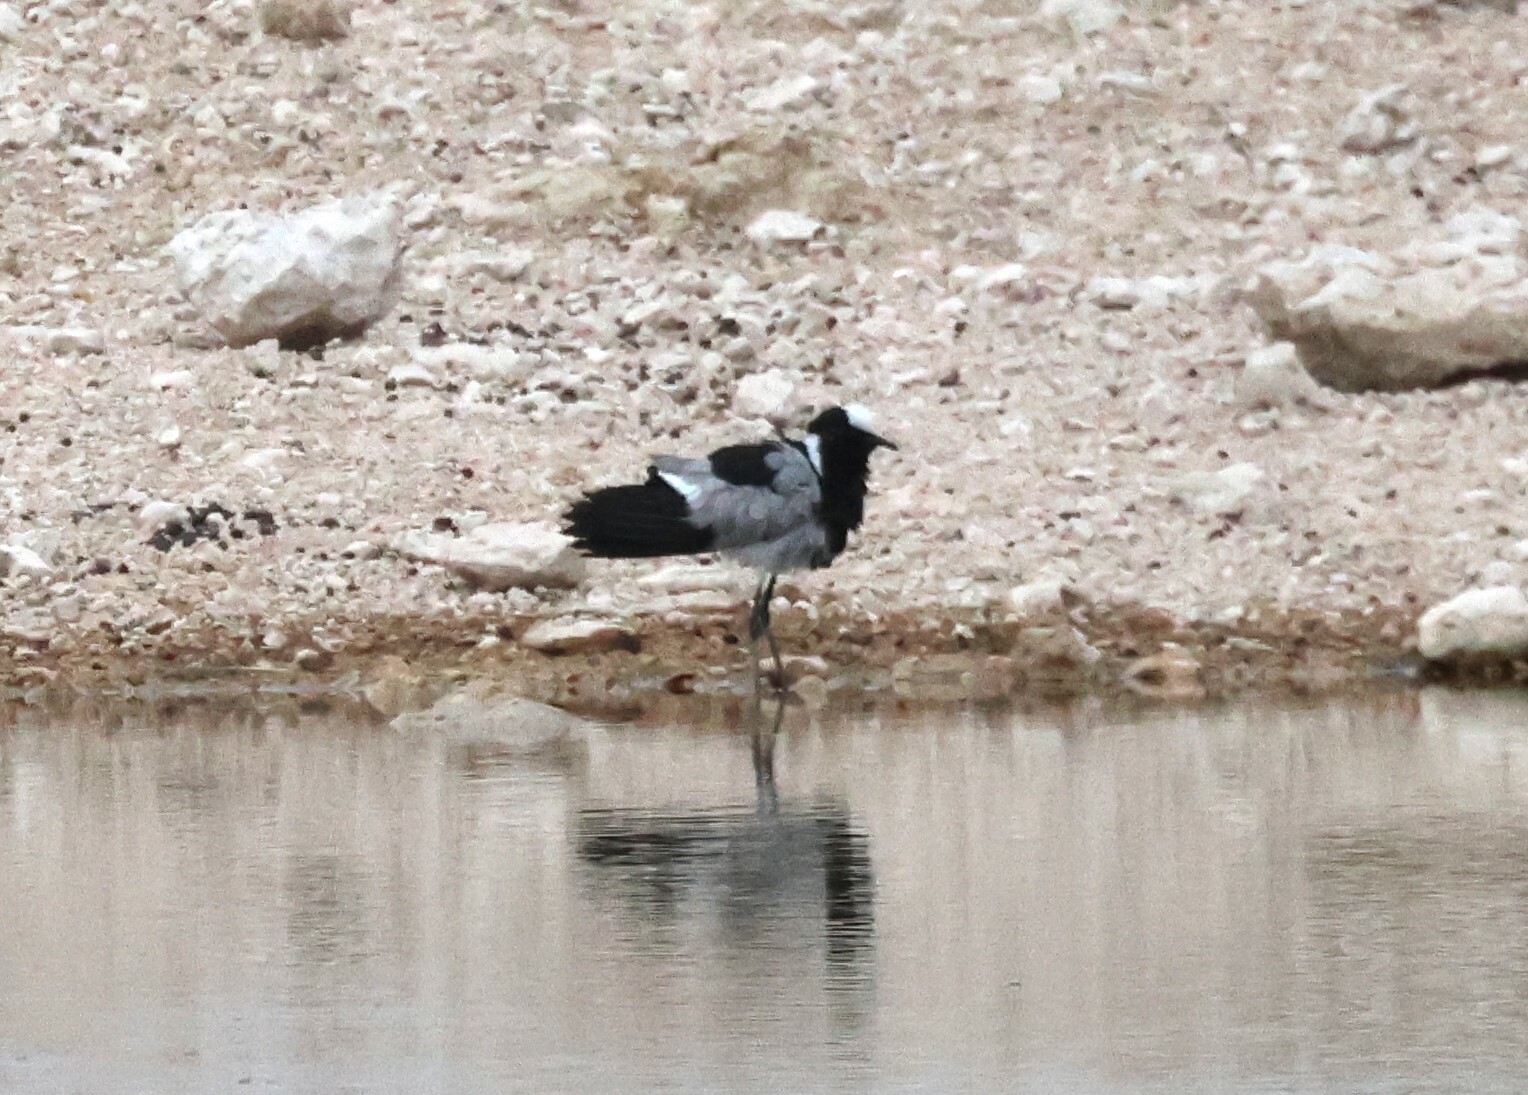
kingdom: Animalia
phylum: Chordata
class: Aves
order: Charadriiformes
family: Charadriidae
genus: Vanellus
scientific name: Vanellus armatus
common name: Blacksmith lapwing
